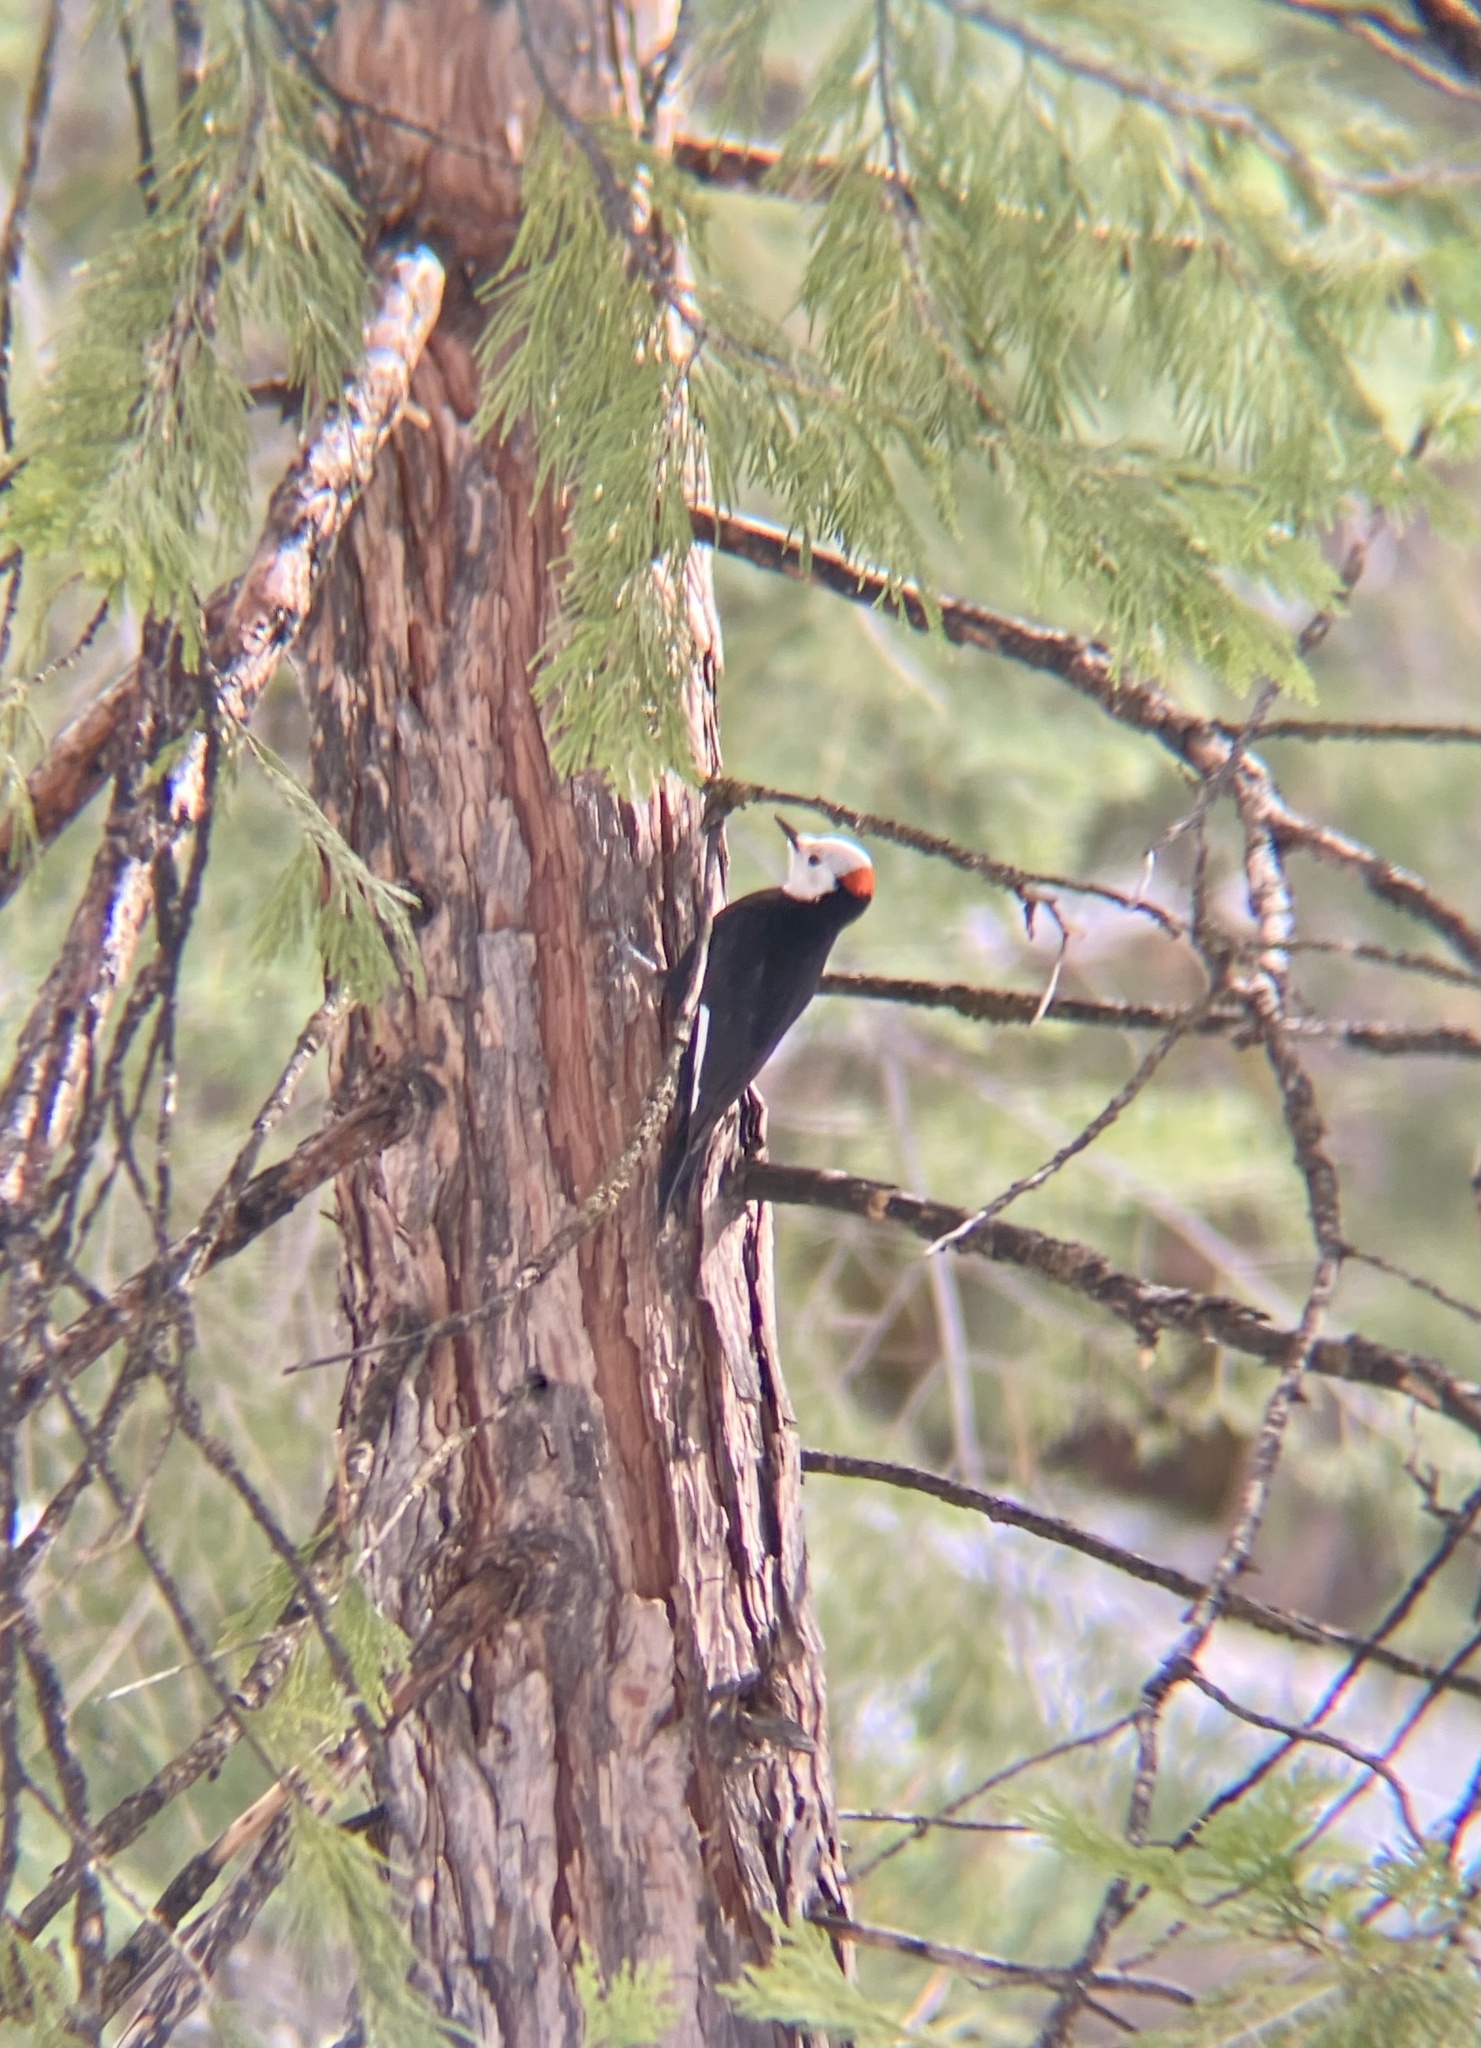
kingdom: Animalia
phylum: Chordata
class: Aves
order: Piciformes
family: Picidae
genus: Leuconotopicus
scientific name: Leuconotopicus albolarvatus
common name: White-headed woodpecker
